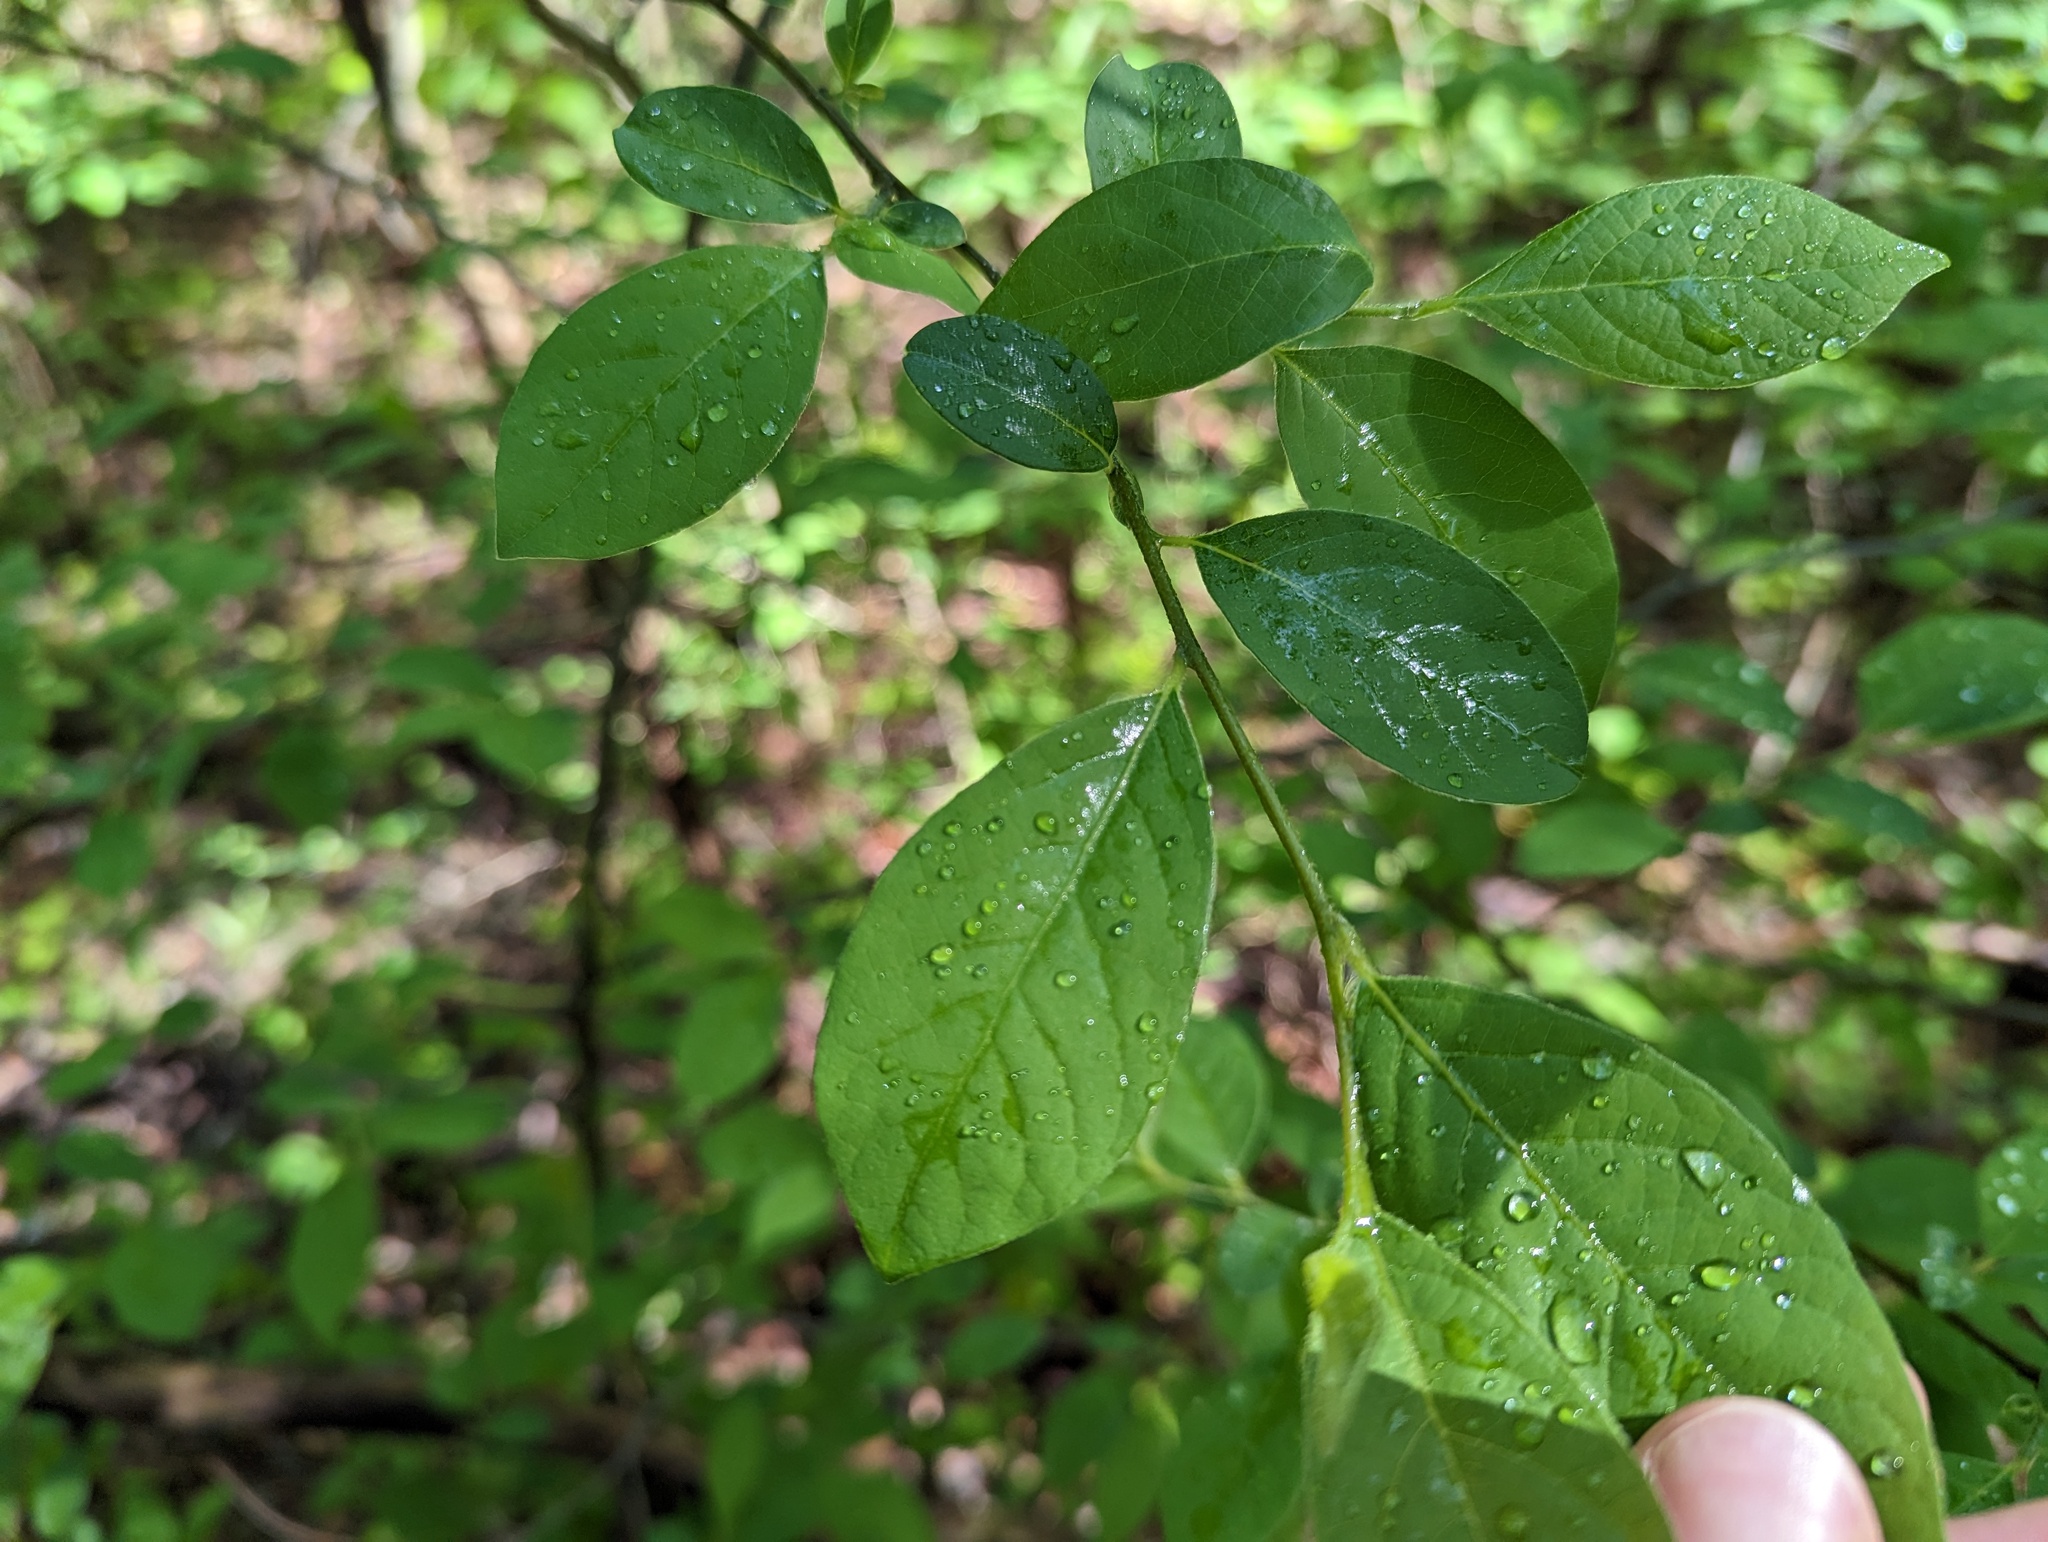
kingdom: Plantae
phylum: Tracheophyta
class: Magnoliopsida
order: Laurales
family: Lauraceae
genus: Lindera
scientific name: Lindera benzoin
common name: Spicebush
